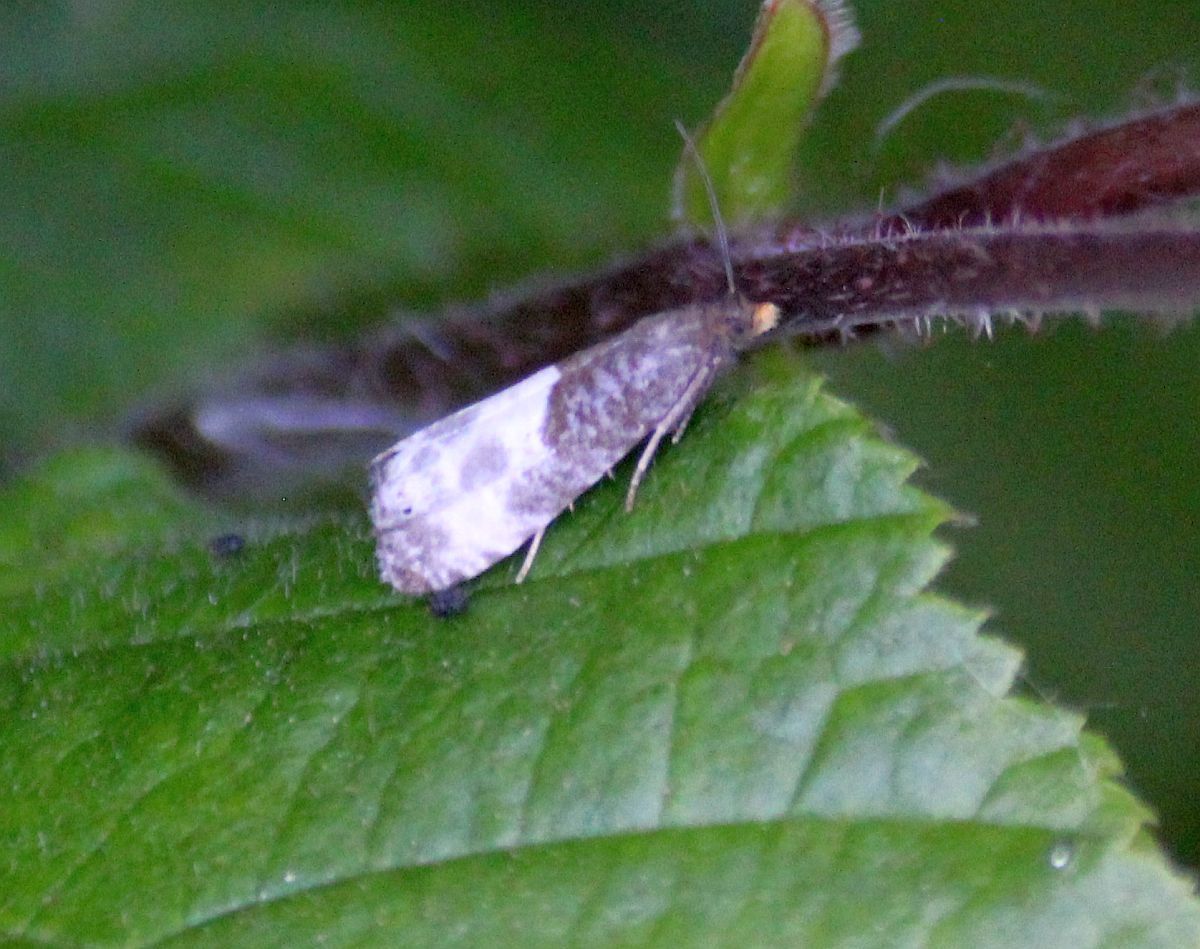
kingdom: Animalia
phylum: Arthropoda
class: Insecta
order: Lepidoptera
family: Tortricidae
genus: Notocelia
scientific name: Notocelia cynosbatella
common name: Yellow-faced bell moth
